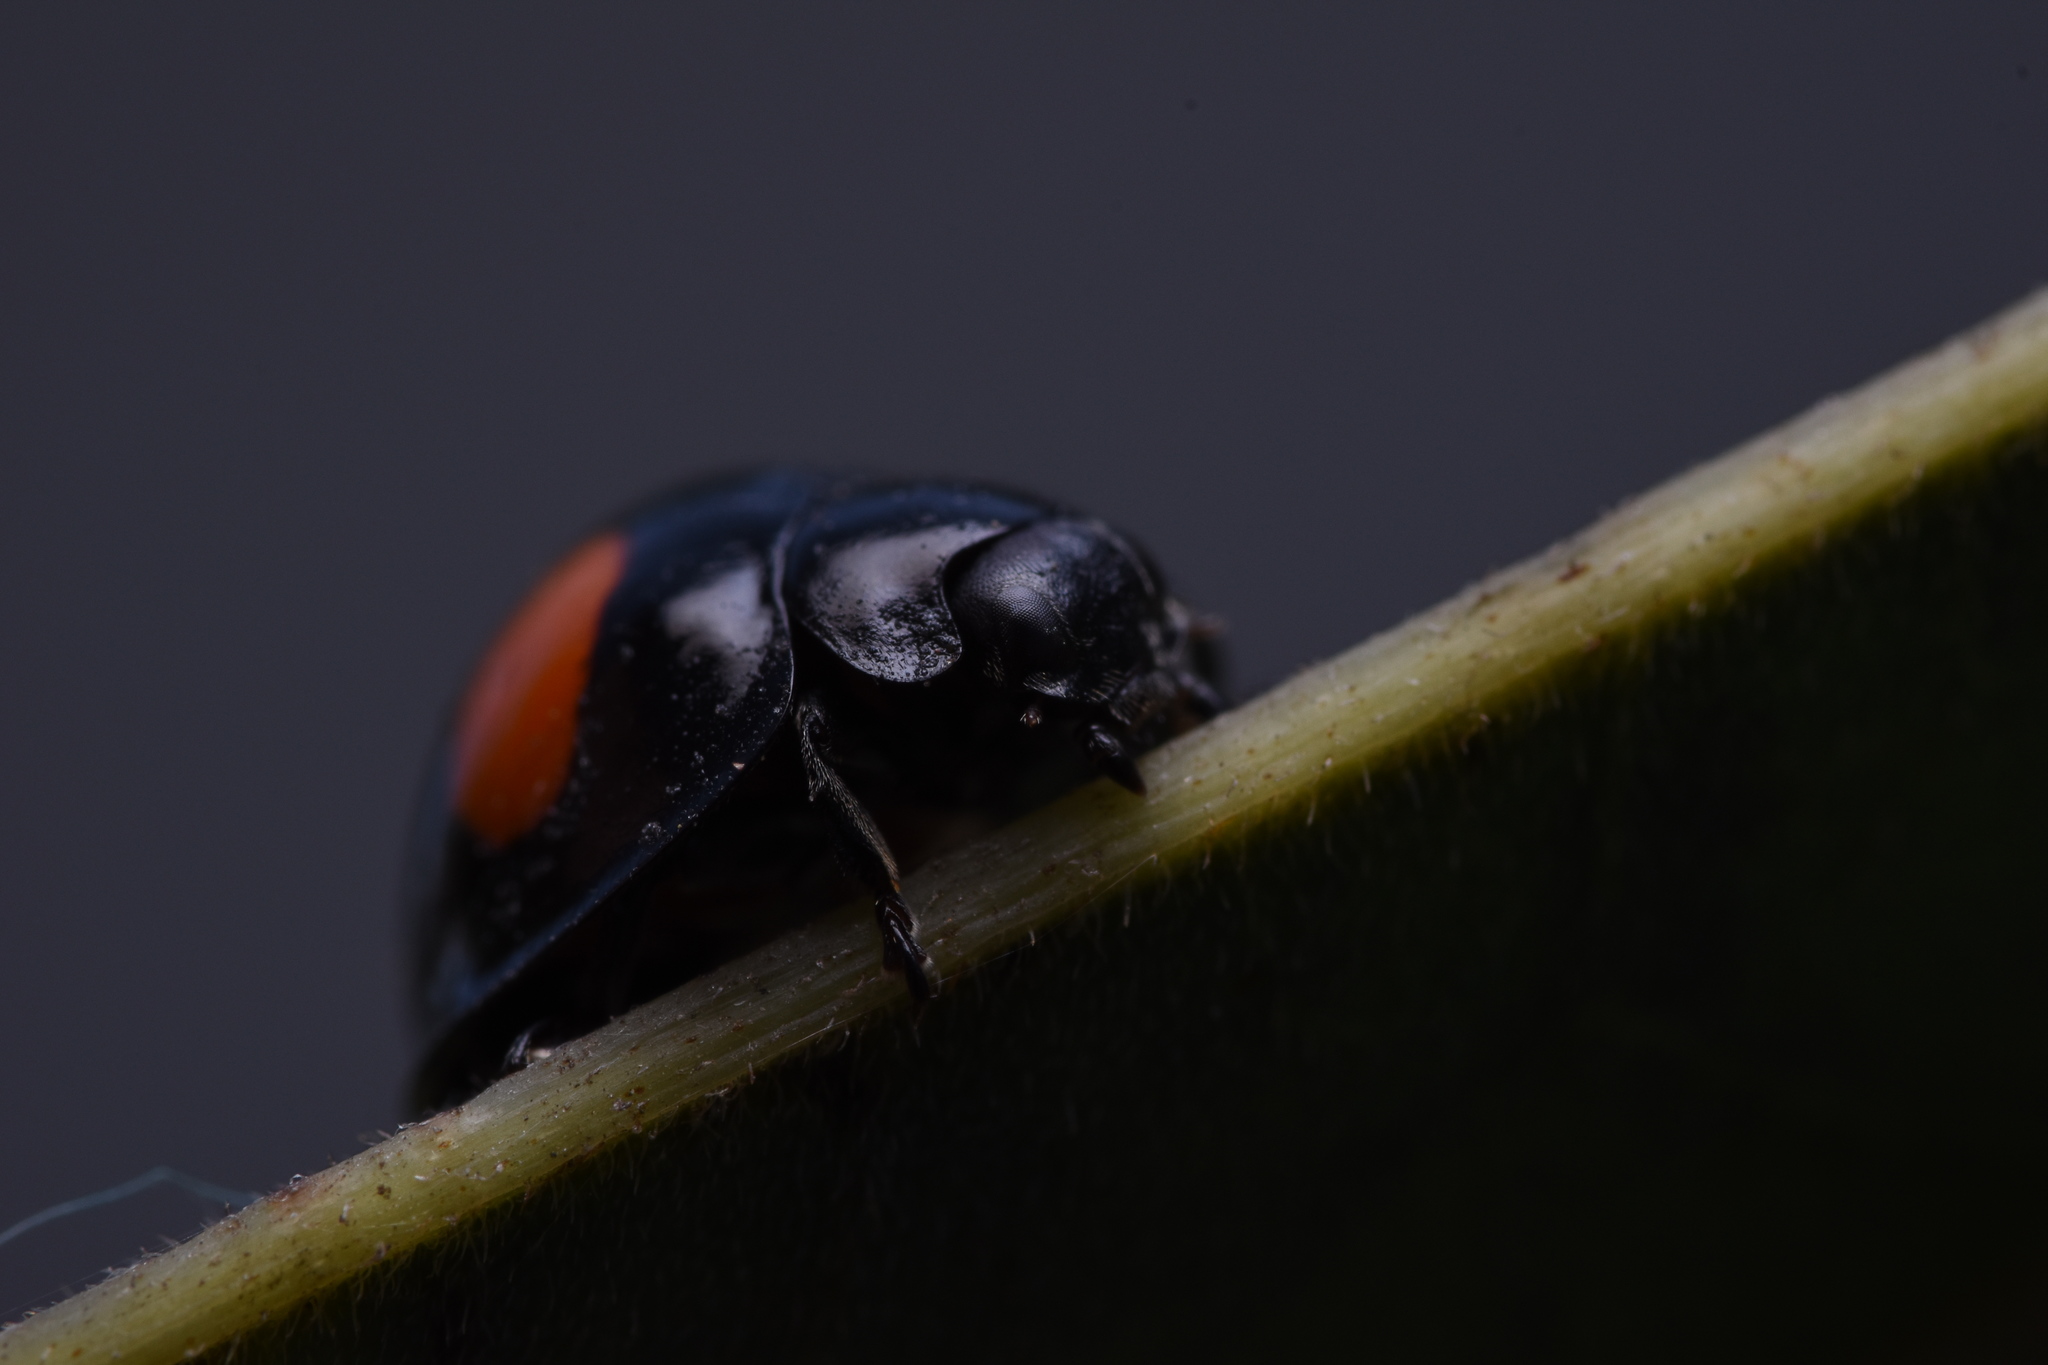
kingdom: Animalia
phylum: Arthropoda
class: Insecta
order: Coleoptera
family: Coccinellidae
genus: Chilocorus
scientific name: Chilocorus cacti
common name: Cactus lady beetle
